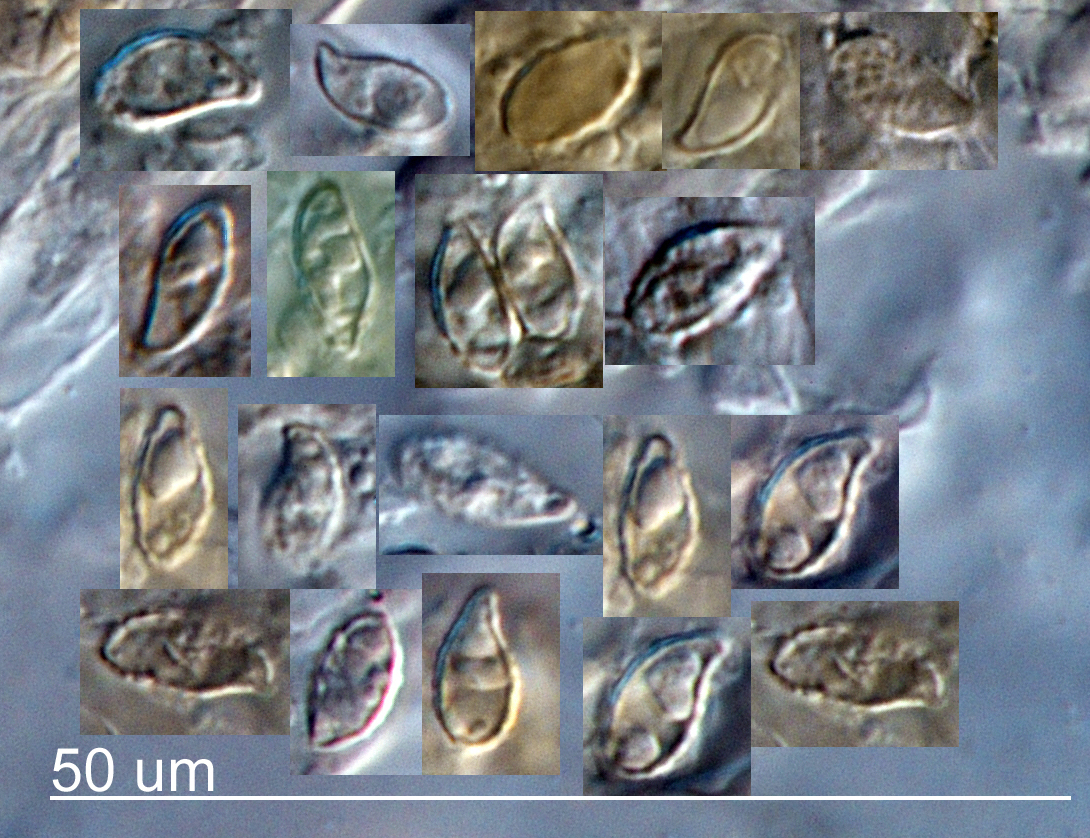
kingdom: Fungi
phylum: Basidiomycota
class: Agaricomycetes
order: Gomphales
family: Gomphaceae
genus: Ramaria
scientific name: Ramaria filicicola
